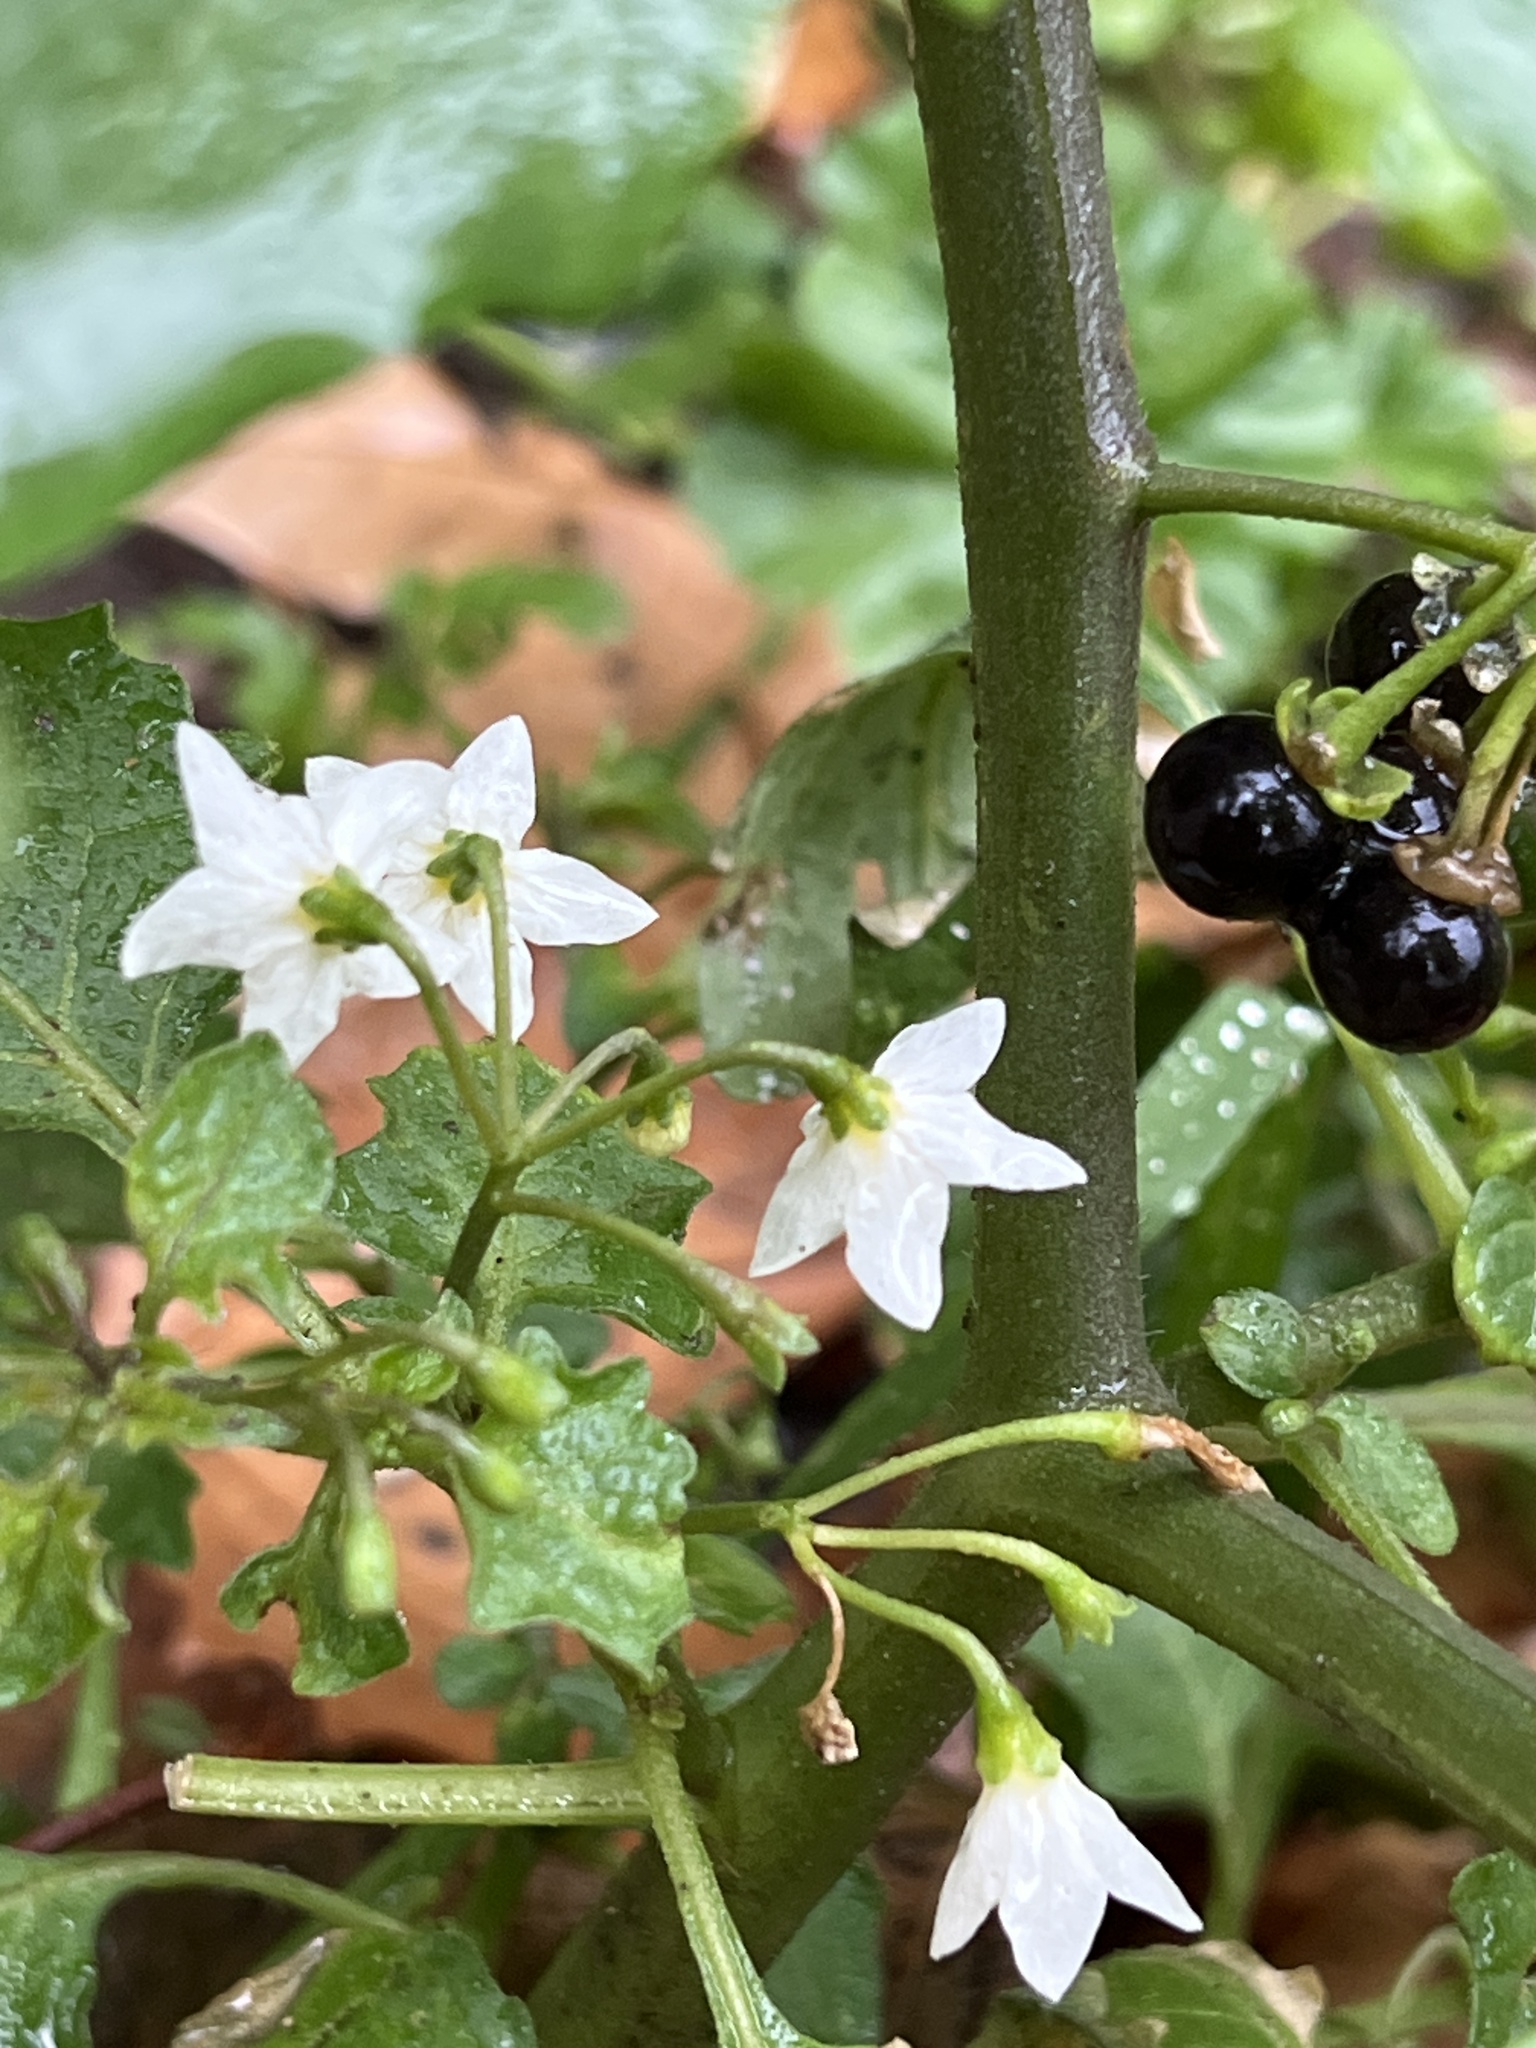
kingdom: Plantae
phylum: Tracheophyta
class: Magnoliopsida
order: Solanales
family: Solanaceae
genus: Solanum
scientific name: Solanum nigrum
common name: Black nightshade
